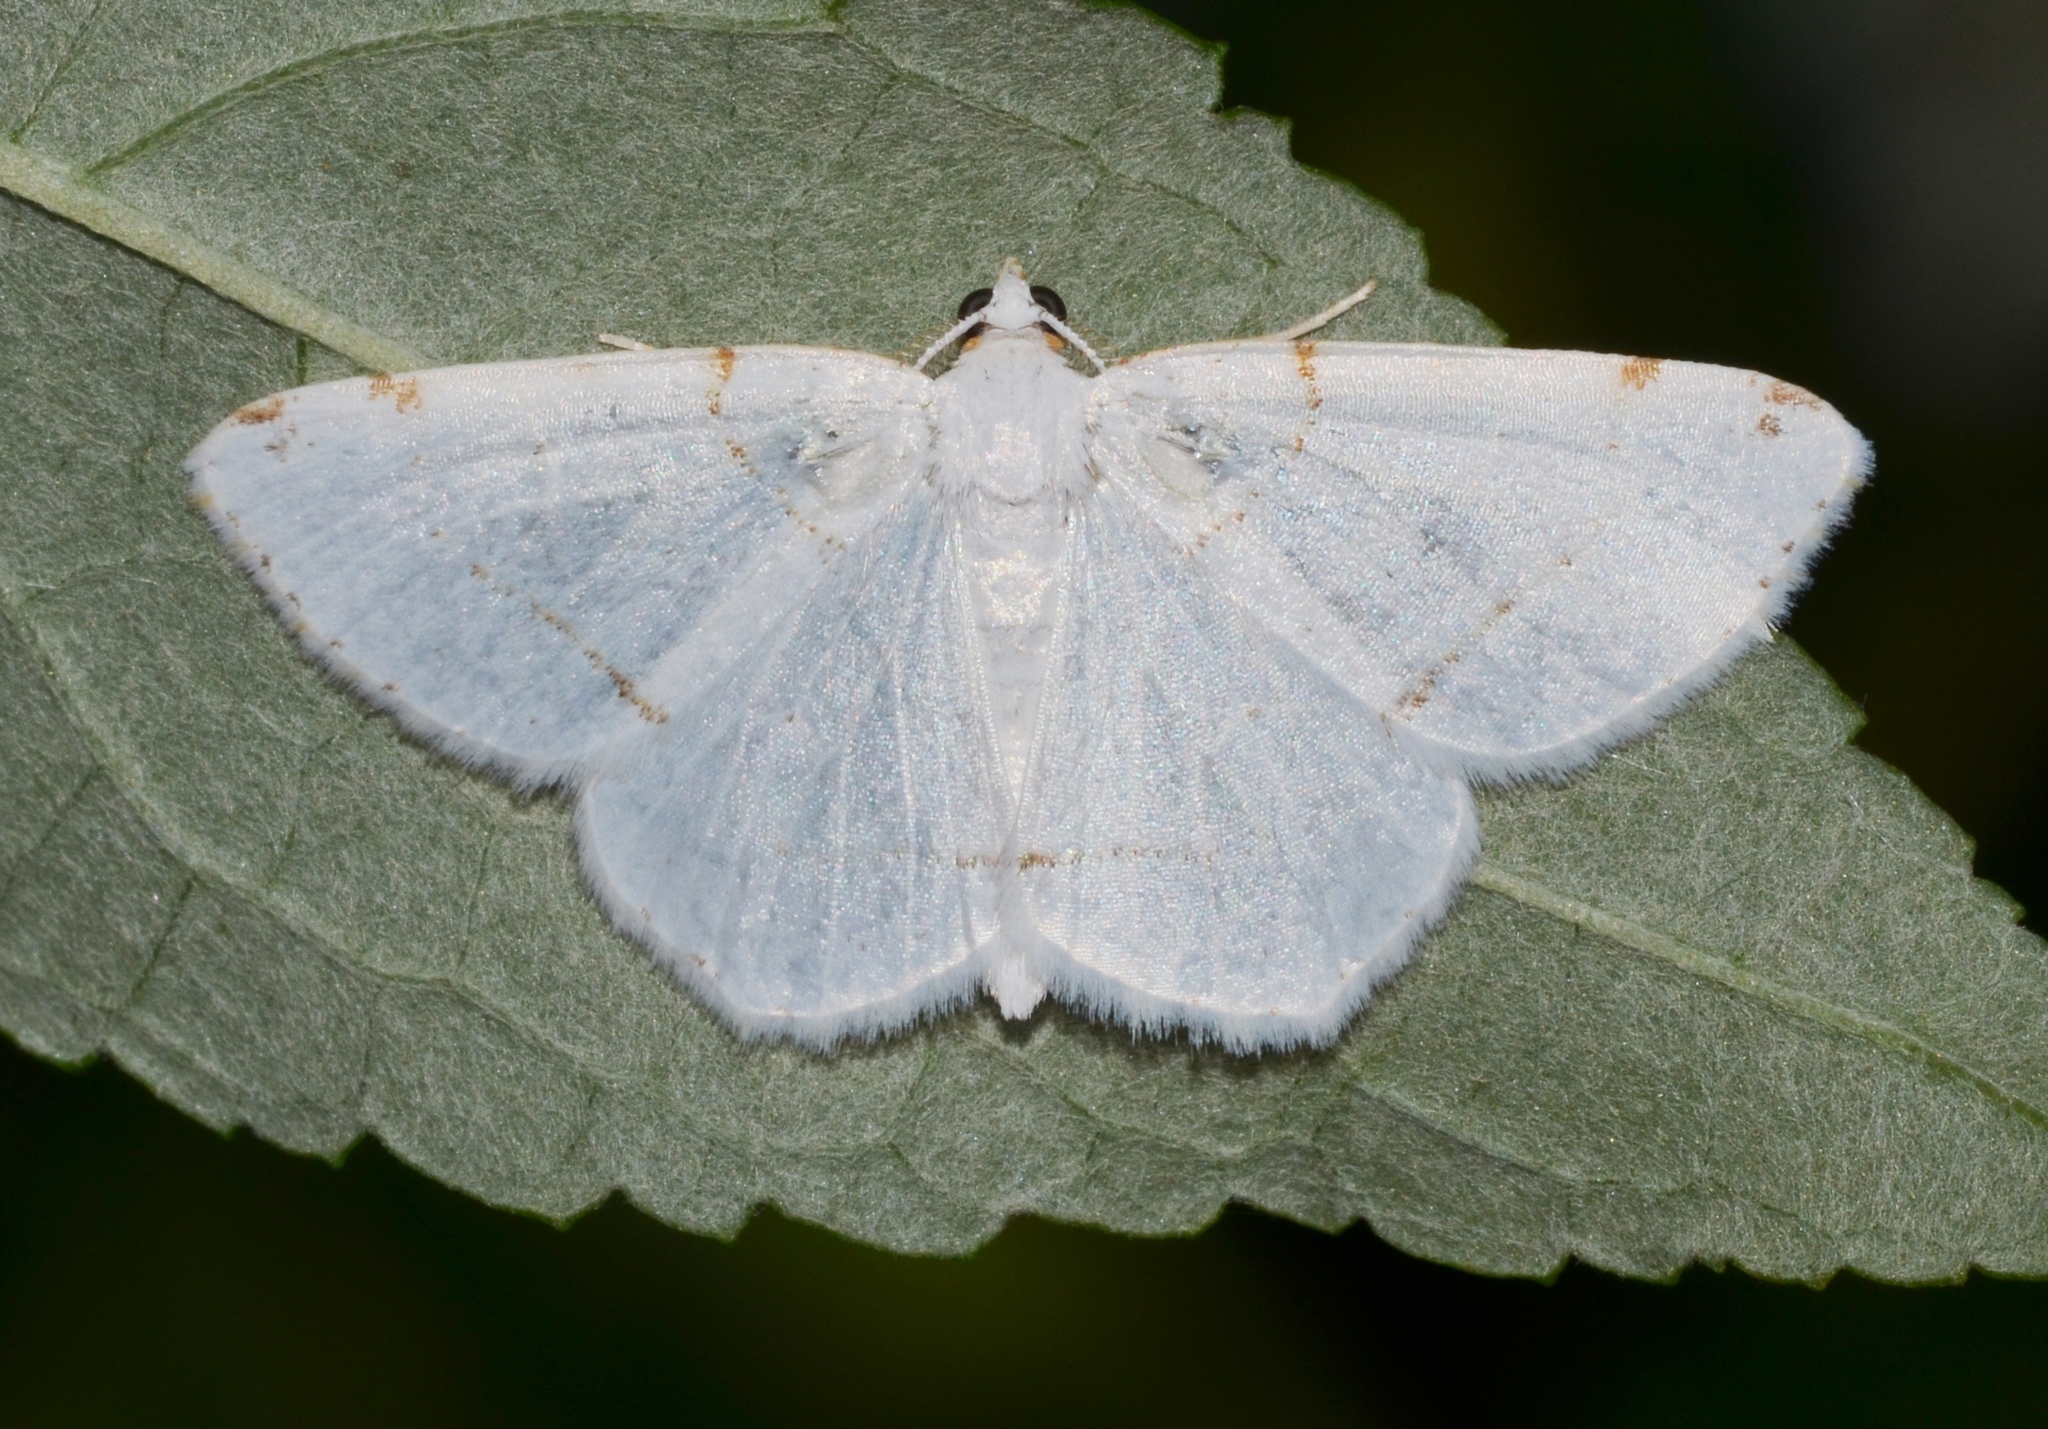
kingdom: Animalia
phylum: Arthropoda
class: Insecta
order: Lepidoptera
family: Geometridae
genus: Macaria
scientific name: Macaria pustularia
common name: Lesser maple spanworm moth
